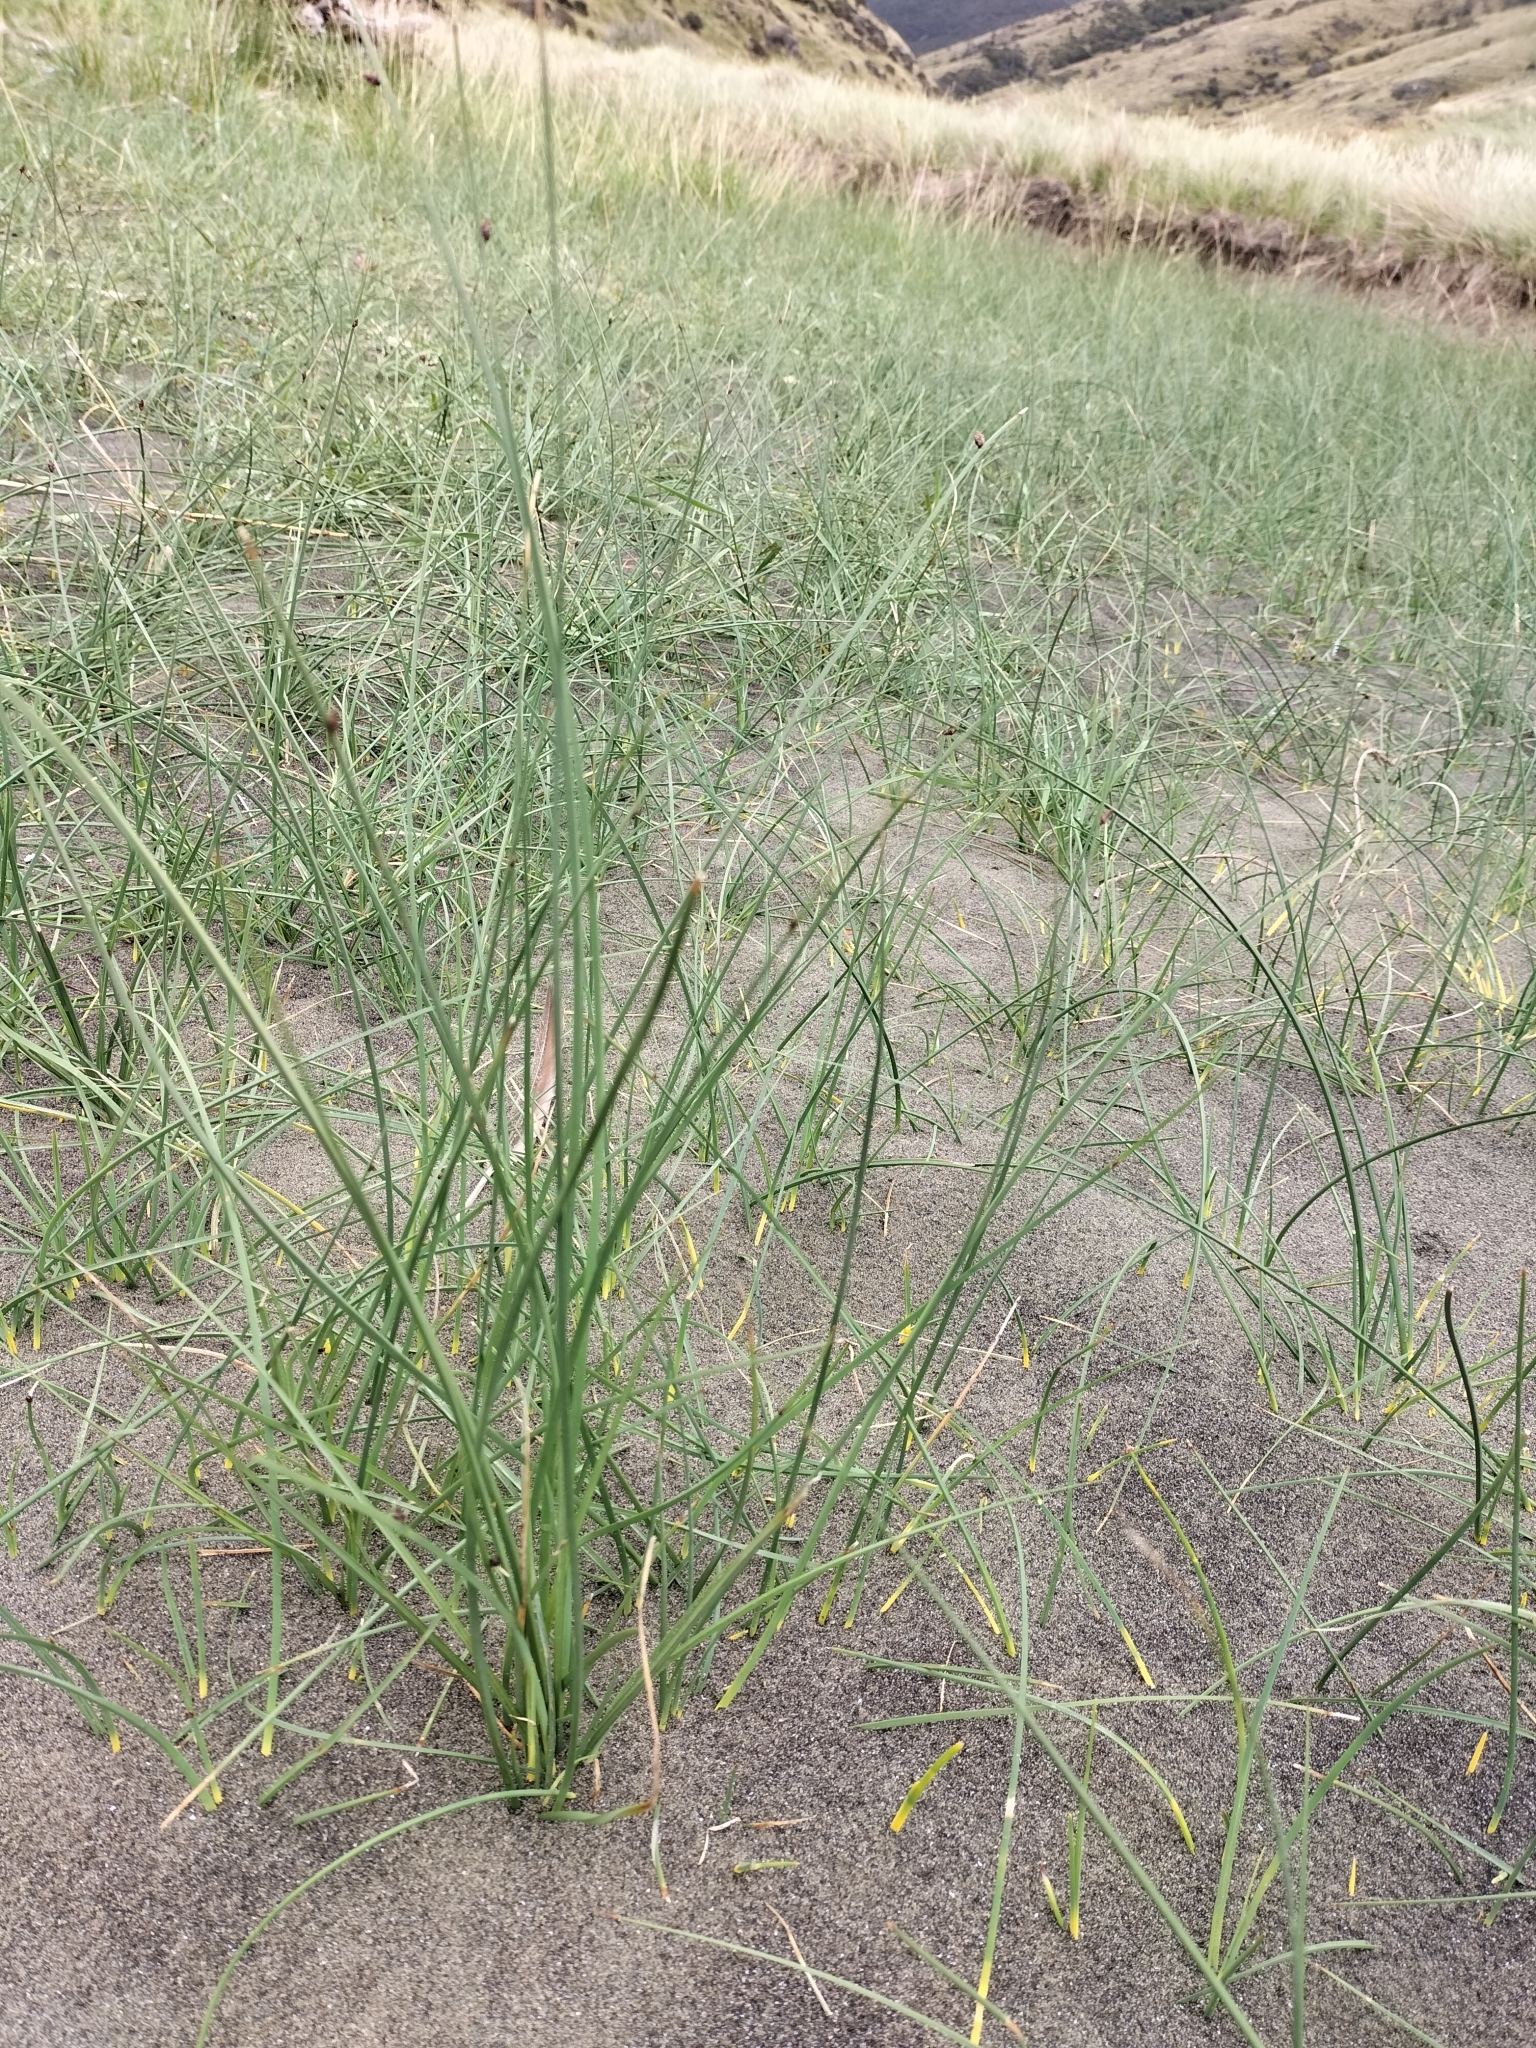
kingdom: Plantae
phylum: Tracheophyta
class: Liliopsida
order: Poales
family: Cyperaceae
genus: Schoenoplectus
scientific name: Schoenoplectus pungens
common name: Sharp club-rush
